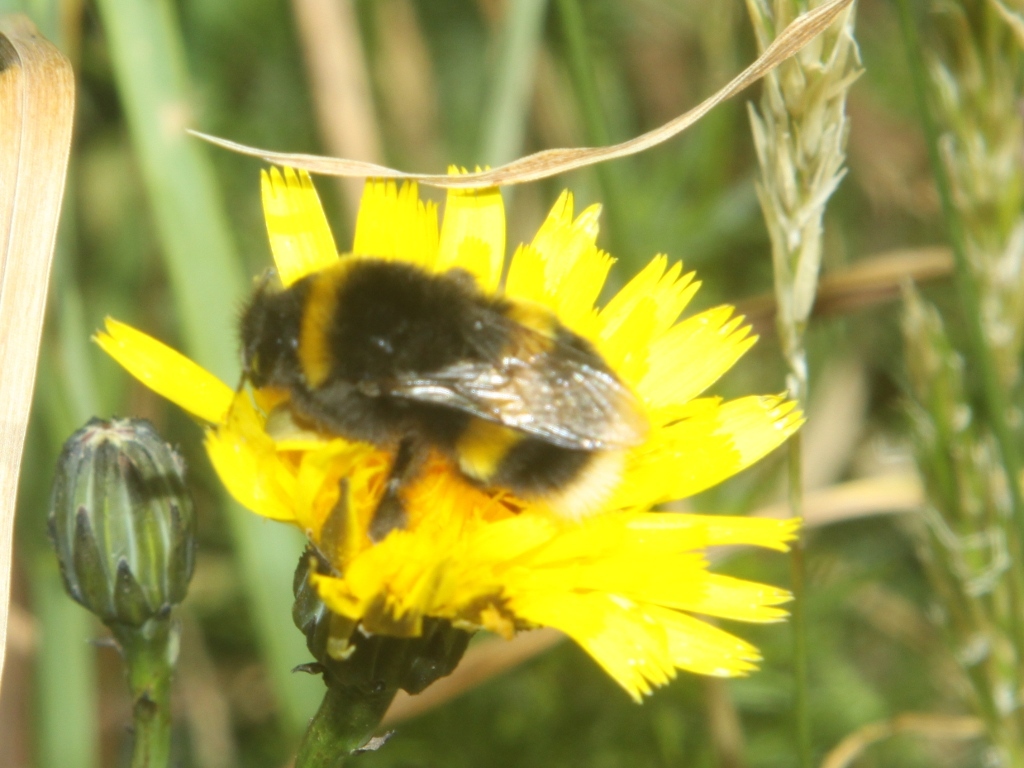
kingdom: Animalia
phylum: Arthropoda
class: Insecta
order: Hymenoptera
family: Apidae
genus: Bombus
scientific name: Bombus terrestris
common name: Buff-tailed bumblebee
